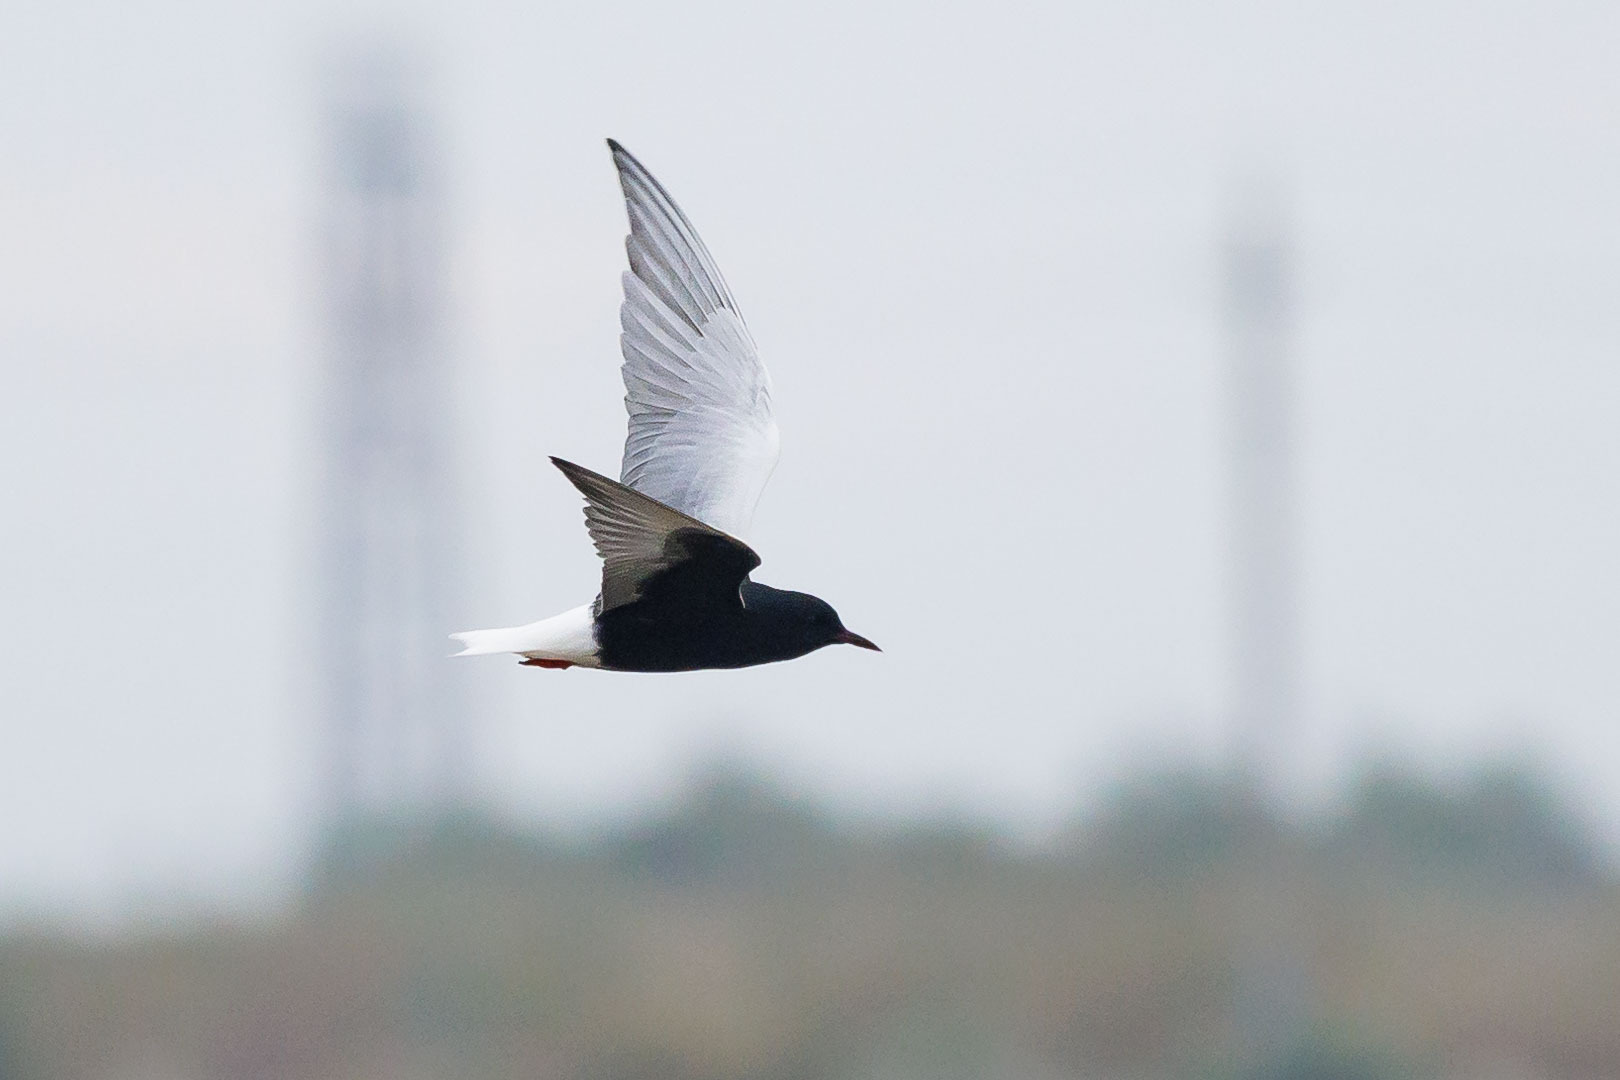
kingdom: Animalia
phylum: Chordata
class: Aves
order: Charadriiformes
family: Laridae
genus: Chlidonias
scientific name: Chlidonias leucopterus
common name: White-winged tern
